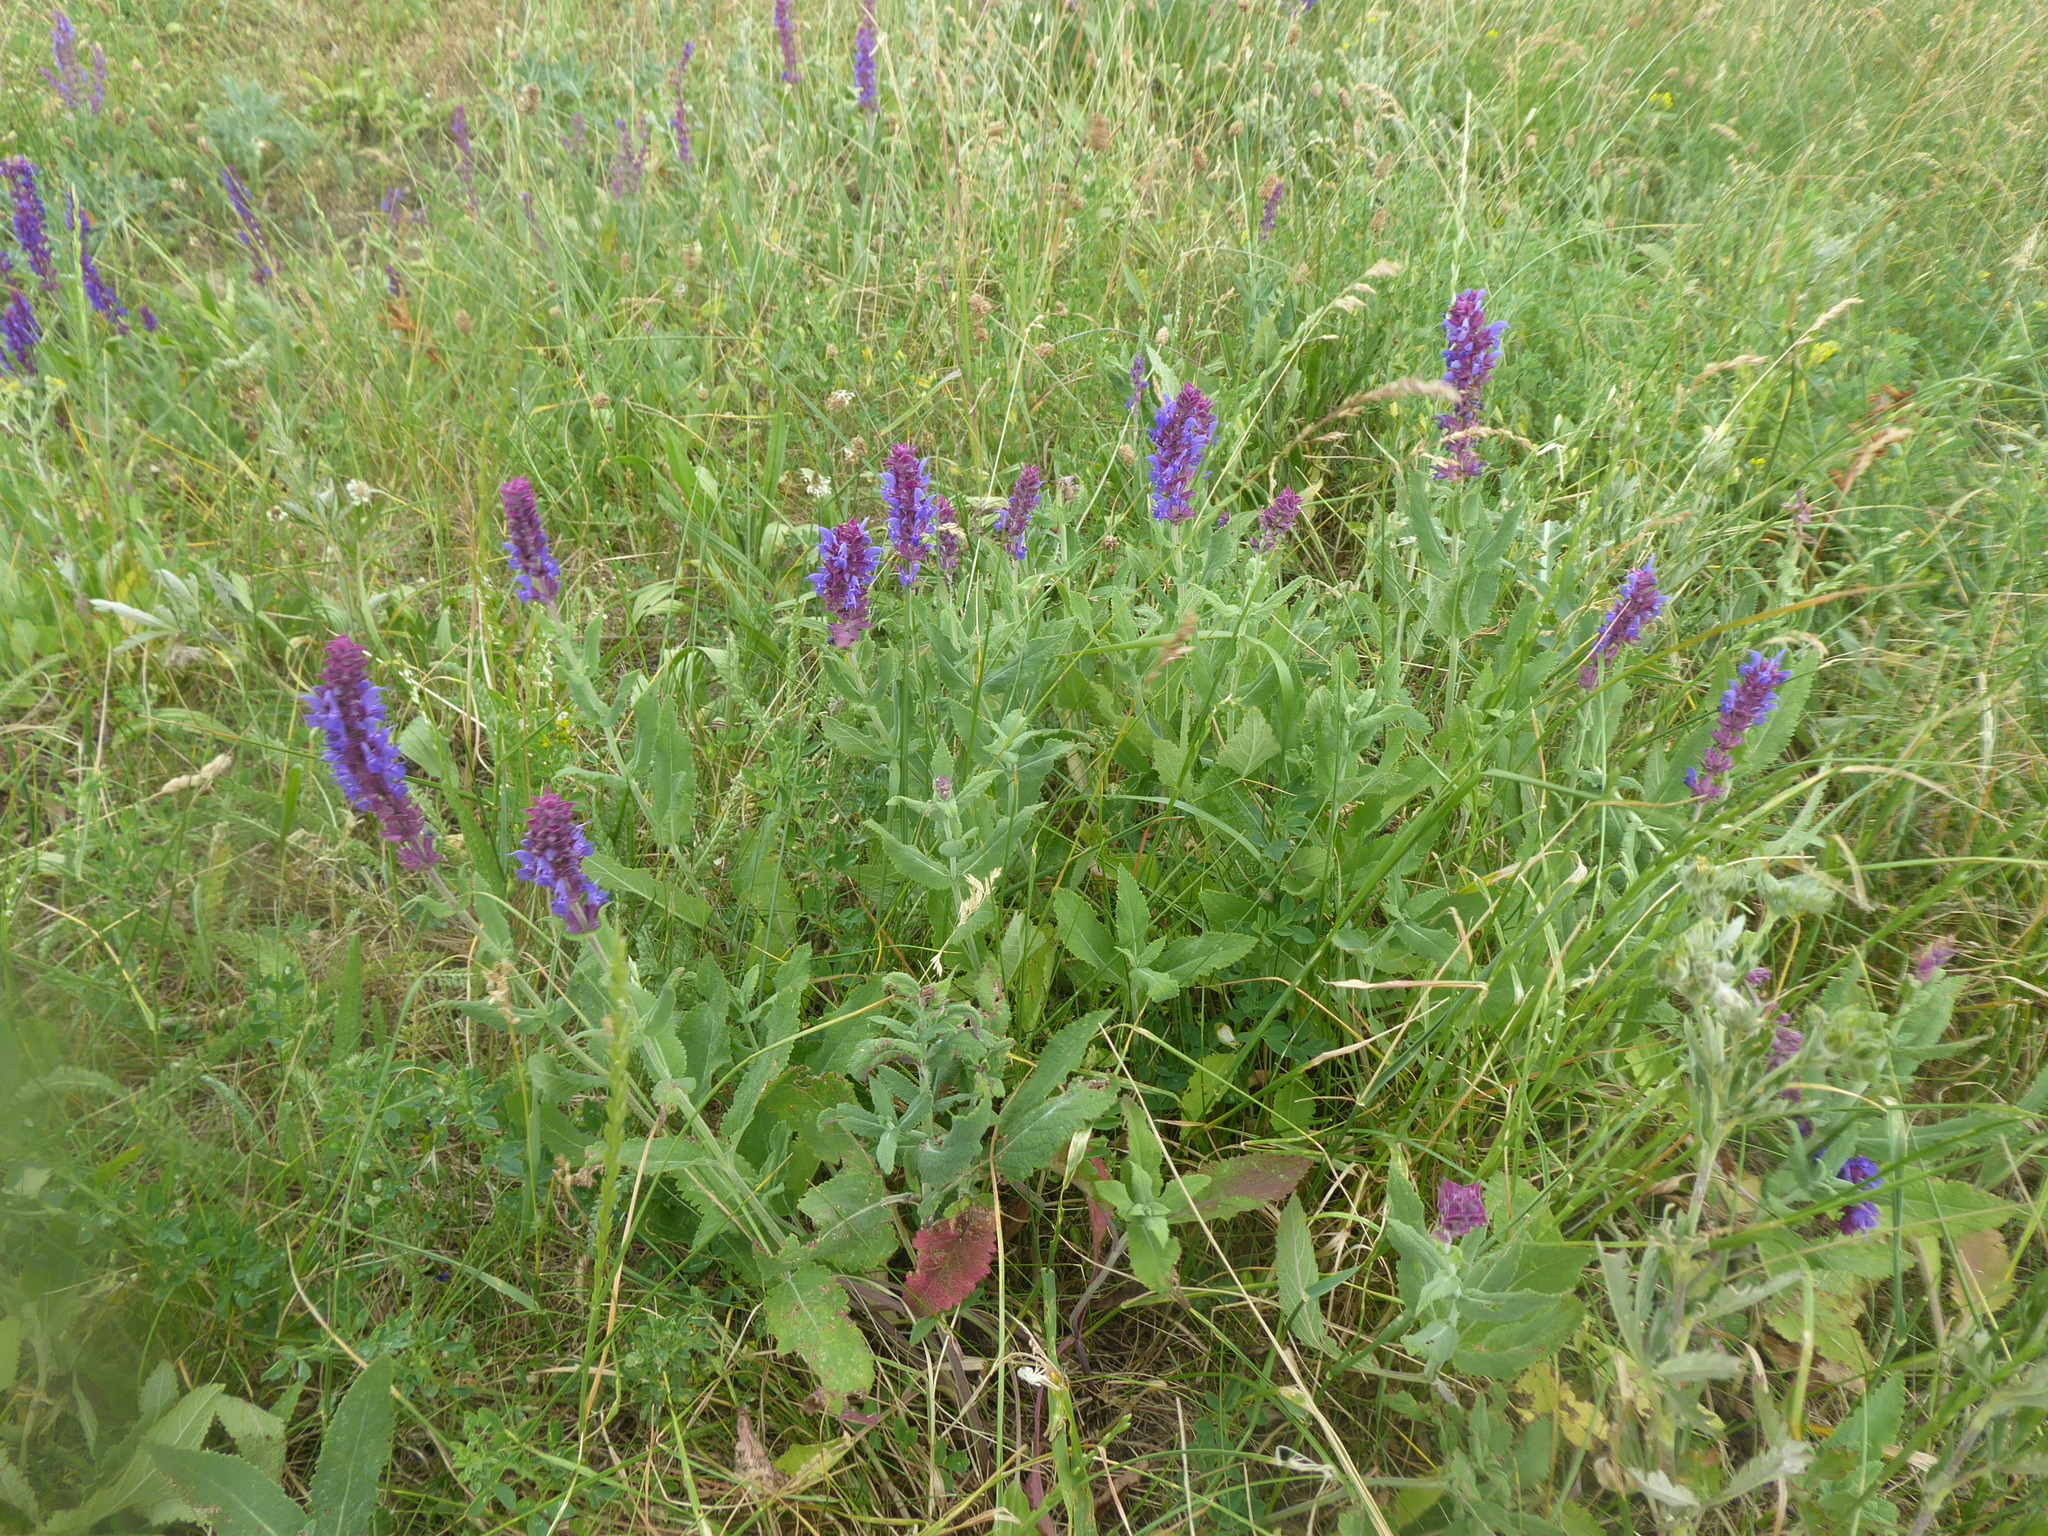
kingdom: Plantae
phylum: Tracheophyta
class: Magnoliopsida
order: Lamiales
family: Lamiaceae
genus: Salvia
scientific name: Salvia nemorosa
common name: Balkan clary
